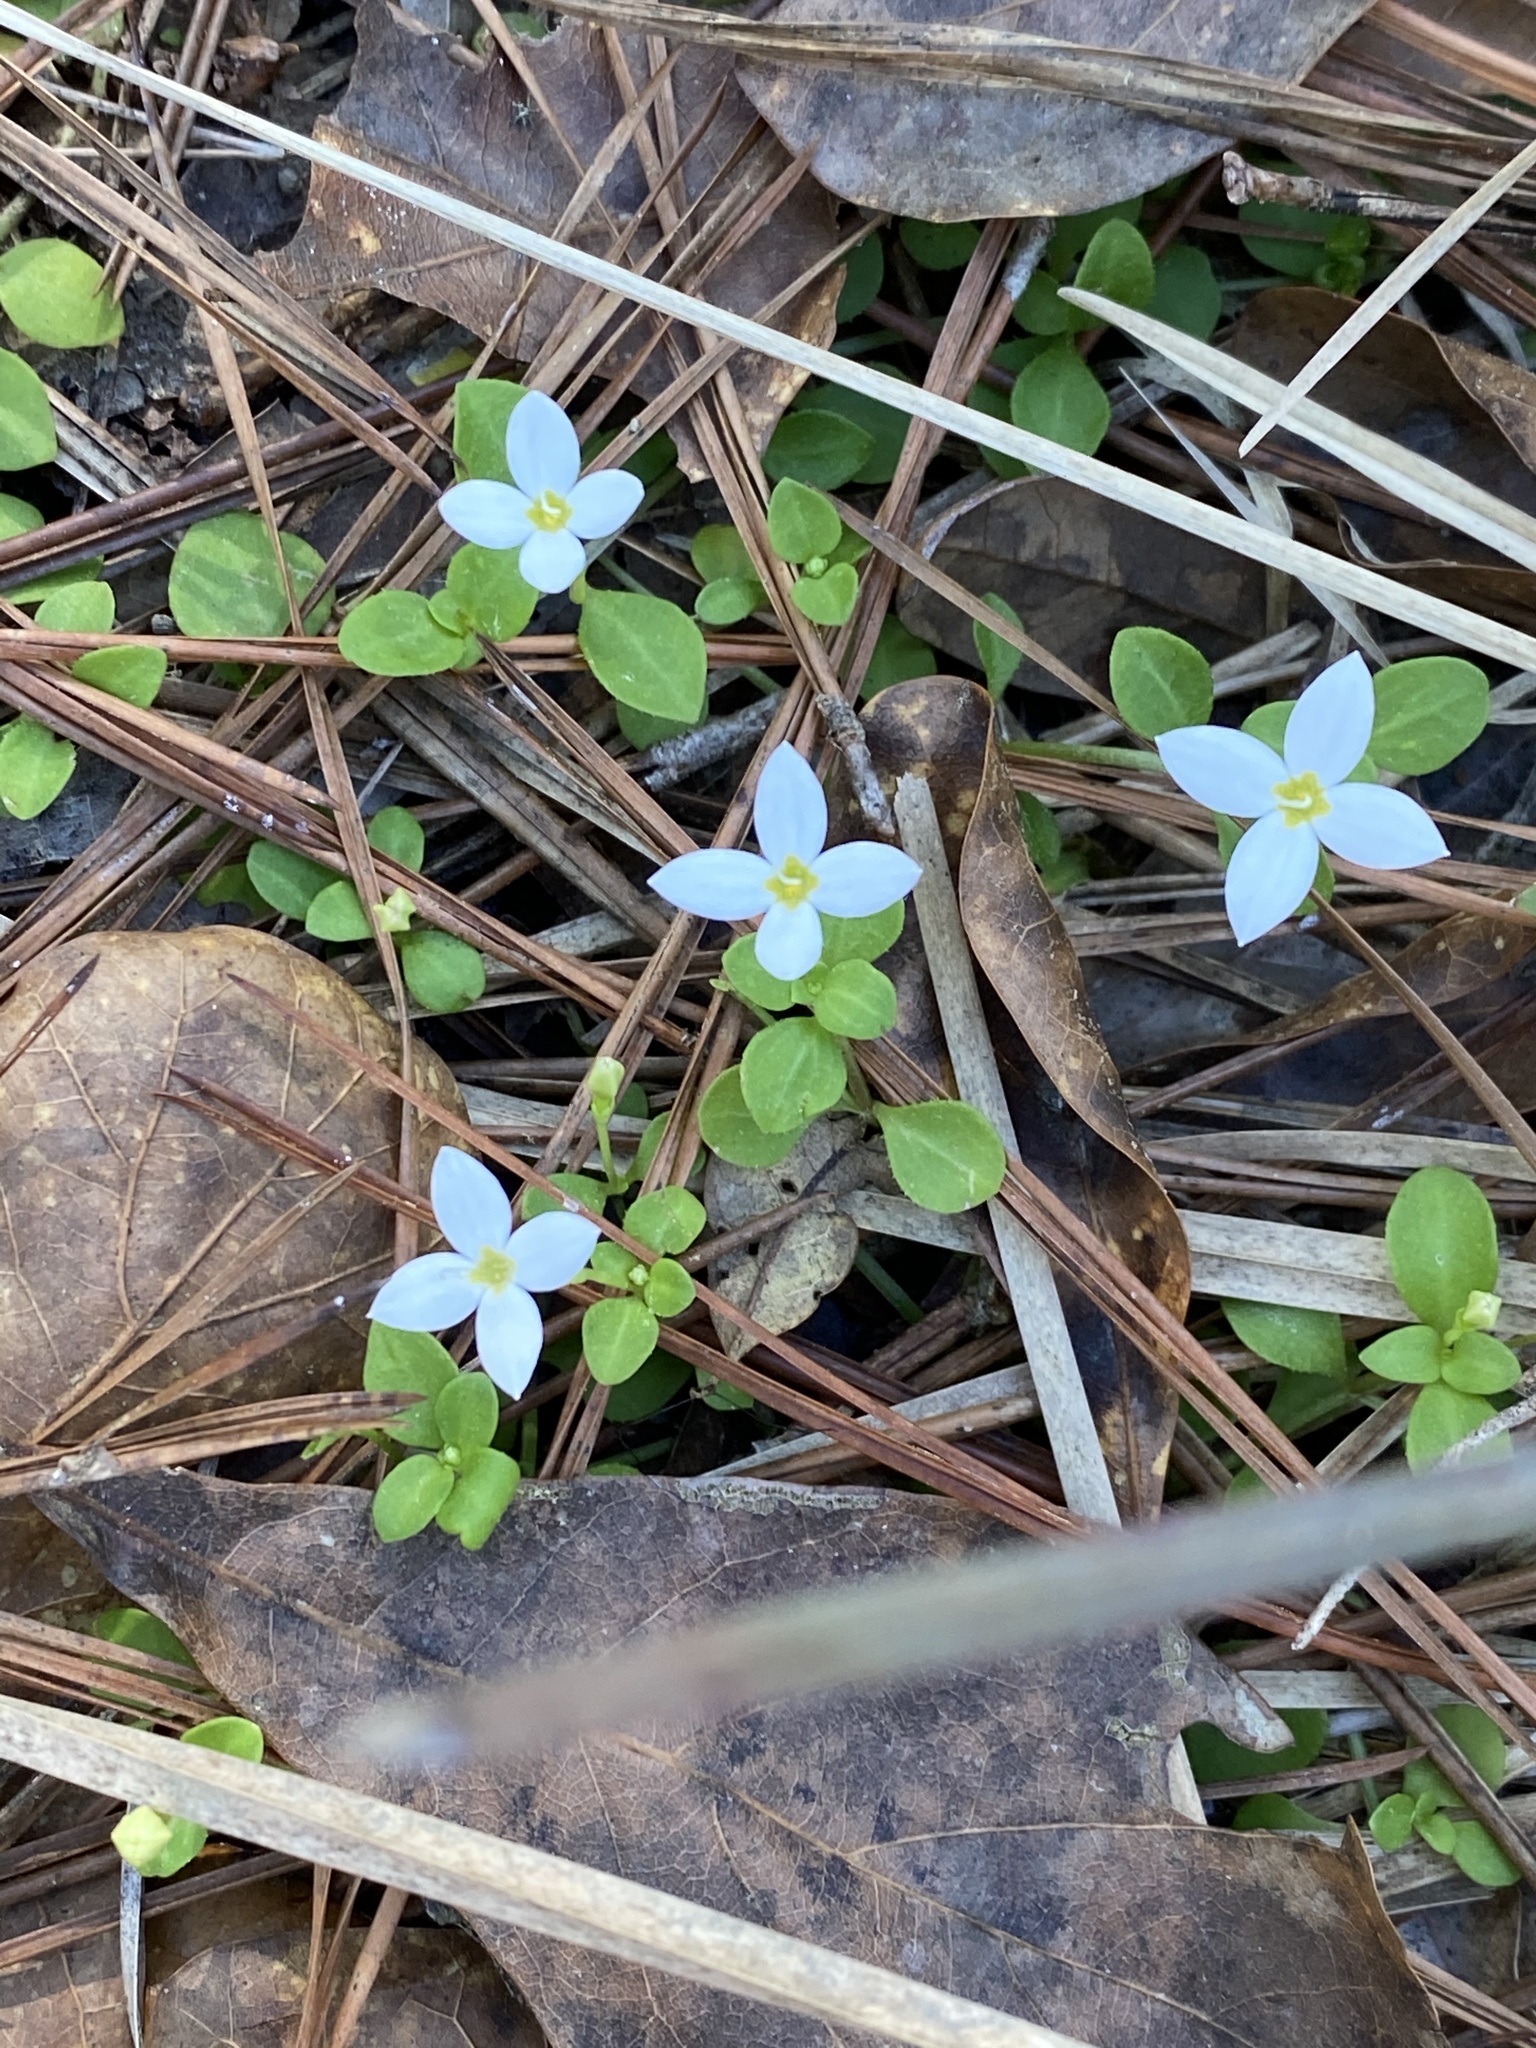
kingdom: Plantae
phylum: Tracheophyta
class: Magnoliopsida
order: Gentianales
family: Rubiaceae
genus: Houstonia
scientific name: Houstonia procumbens
